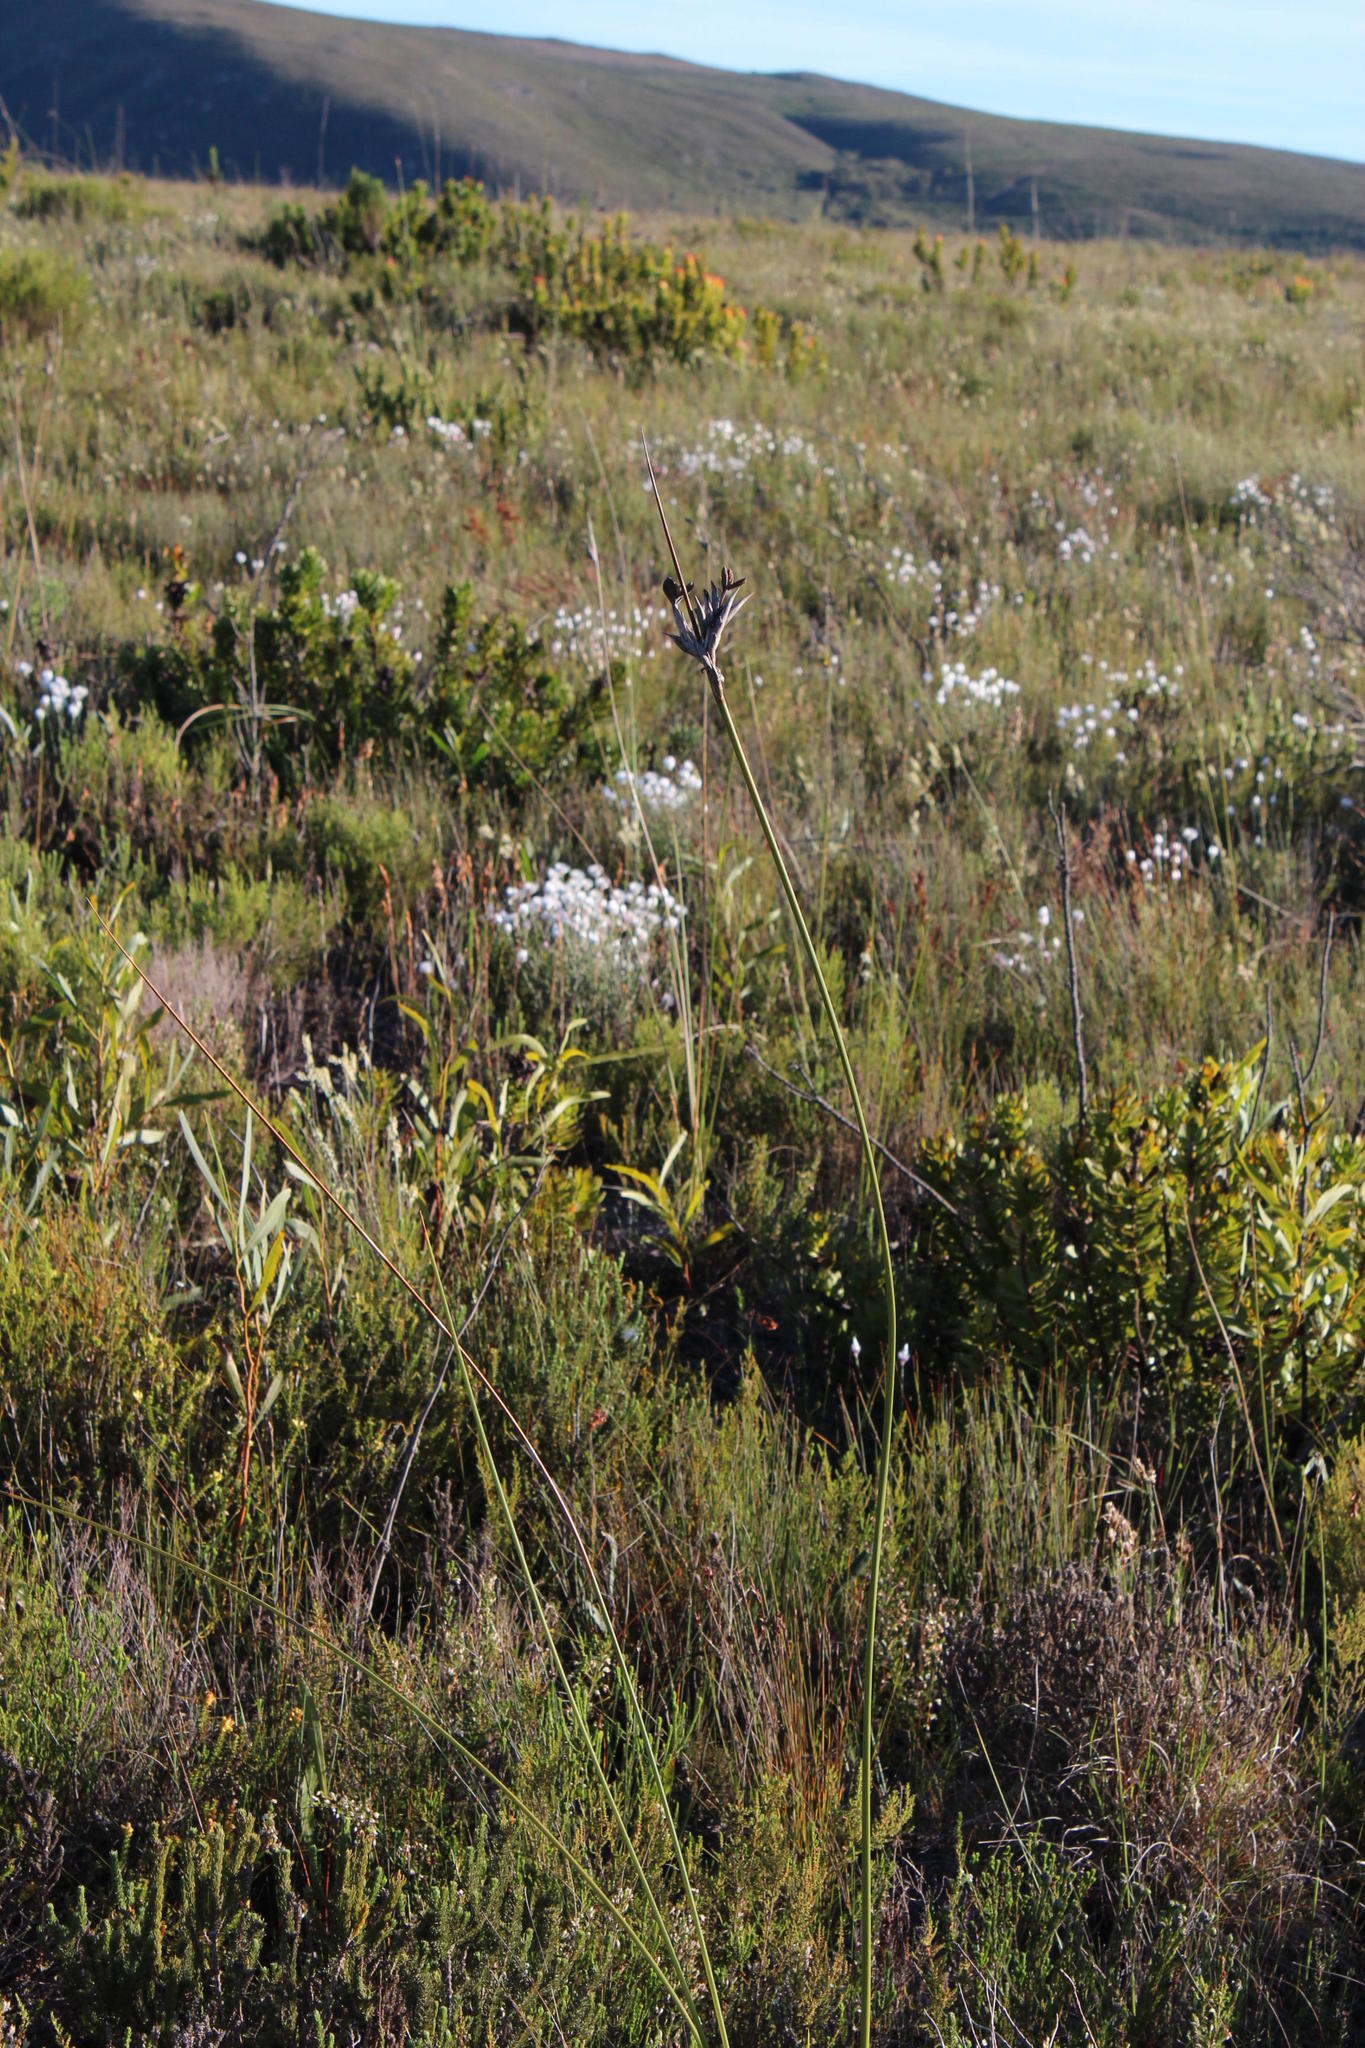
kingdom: Plantae
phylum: Tracheophyta
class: Liliopsida
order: Asparagales
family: Iridaceae
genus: Bobartia
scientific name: Bobartia longicyma
